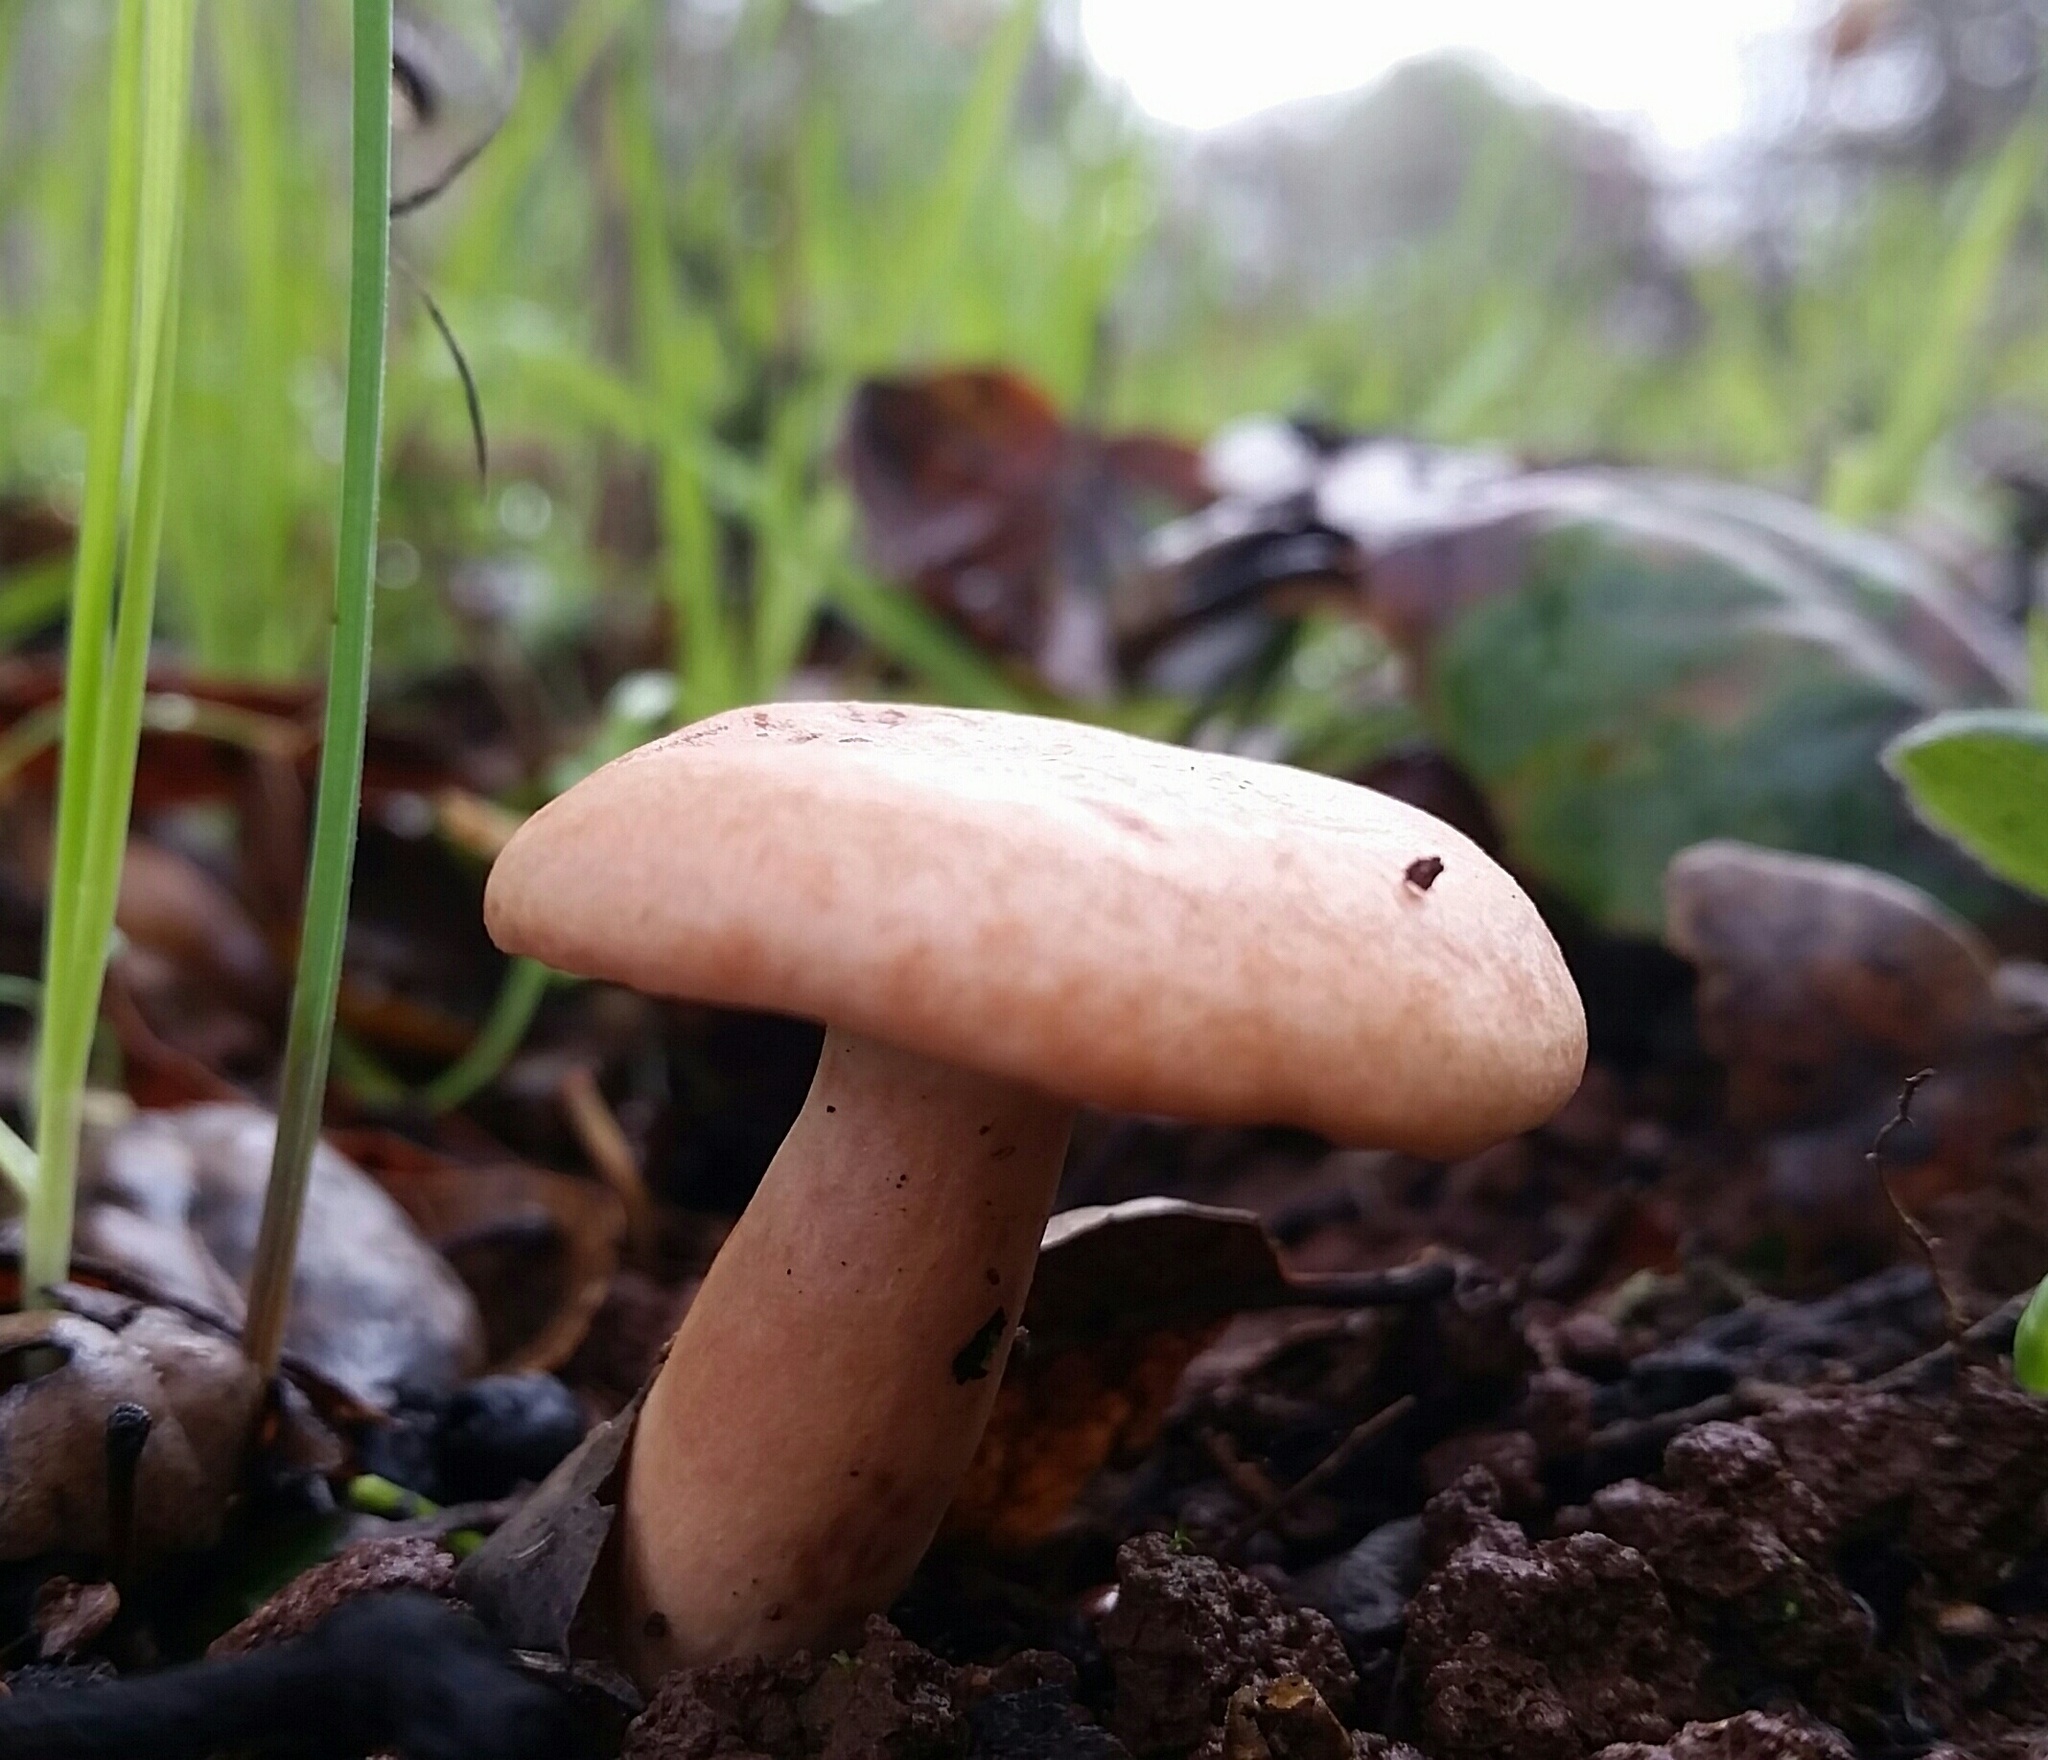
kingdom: Fungi
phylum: Basidiomycota
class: Agaricomycetes
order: Russulales
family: Russulaceae
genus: Lactarius
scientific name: Lactarius xanthogalactus
